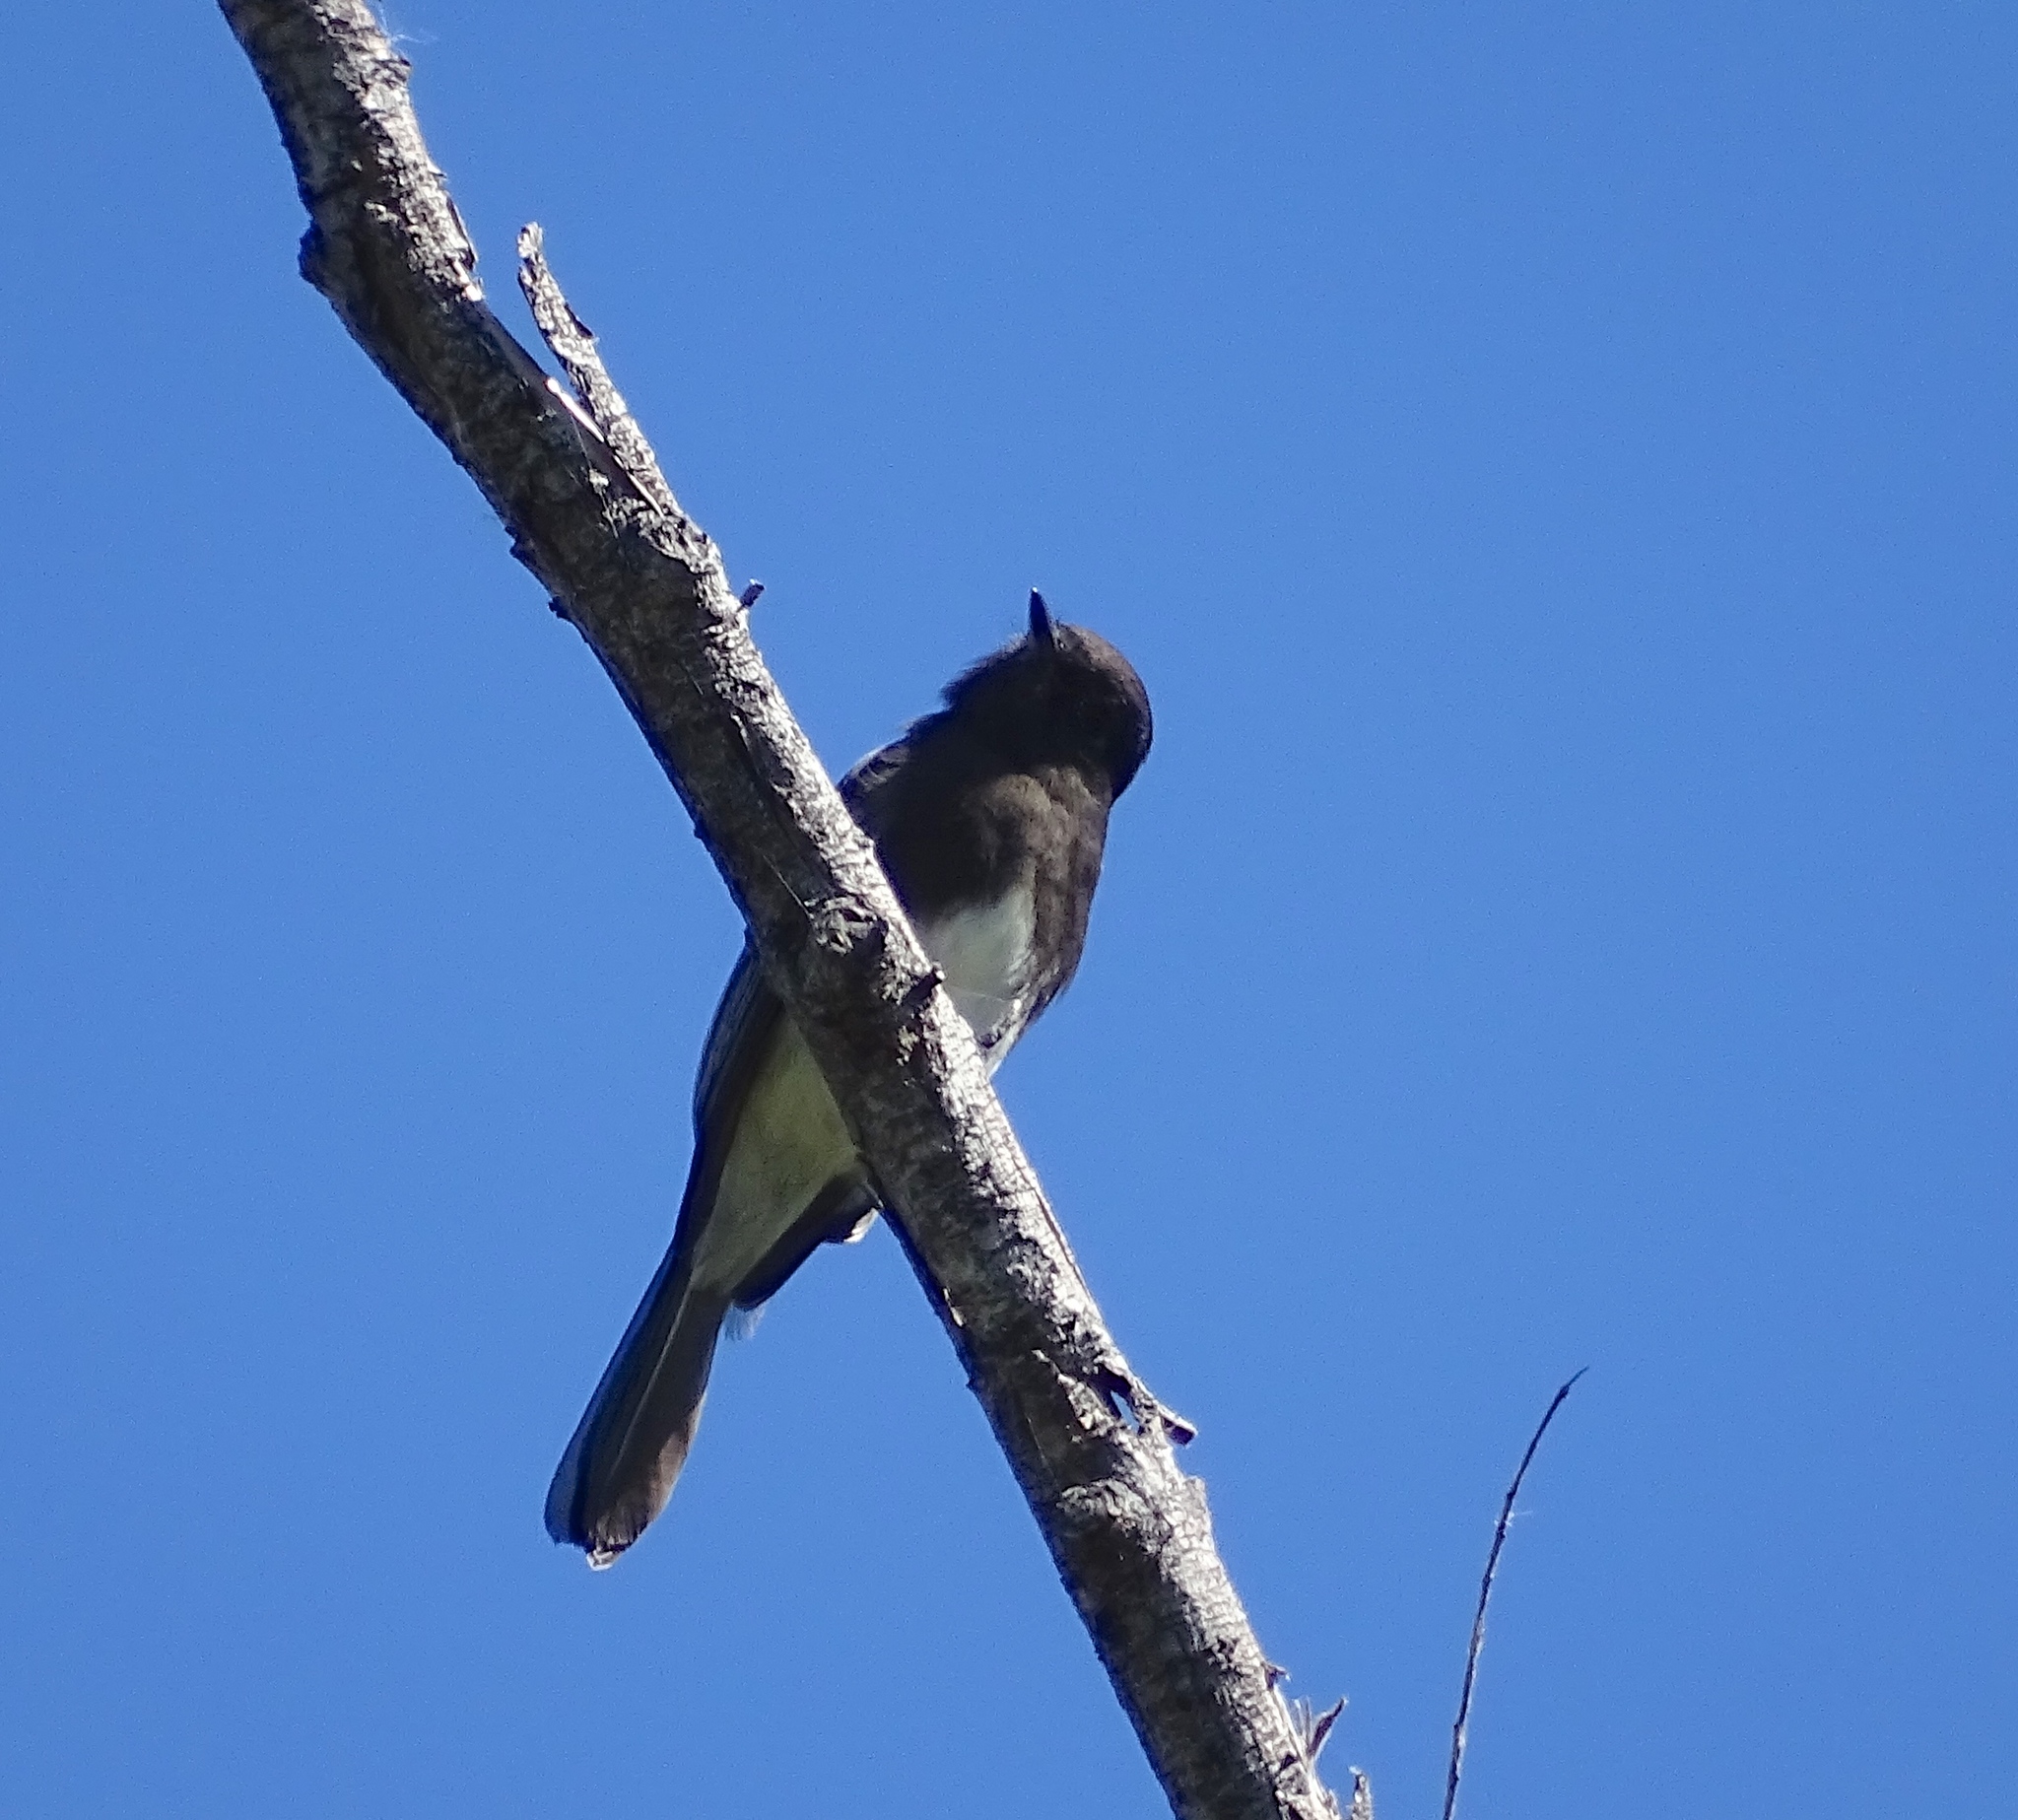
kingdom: Animalia
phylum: Chordata
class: Aves
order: Passeriformes
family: Tyrannidae
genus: Sayornis
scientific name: Sayornis nigricans
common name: Black phoebe
